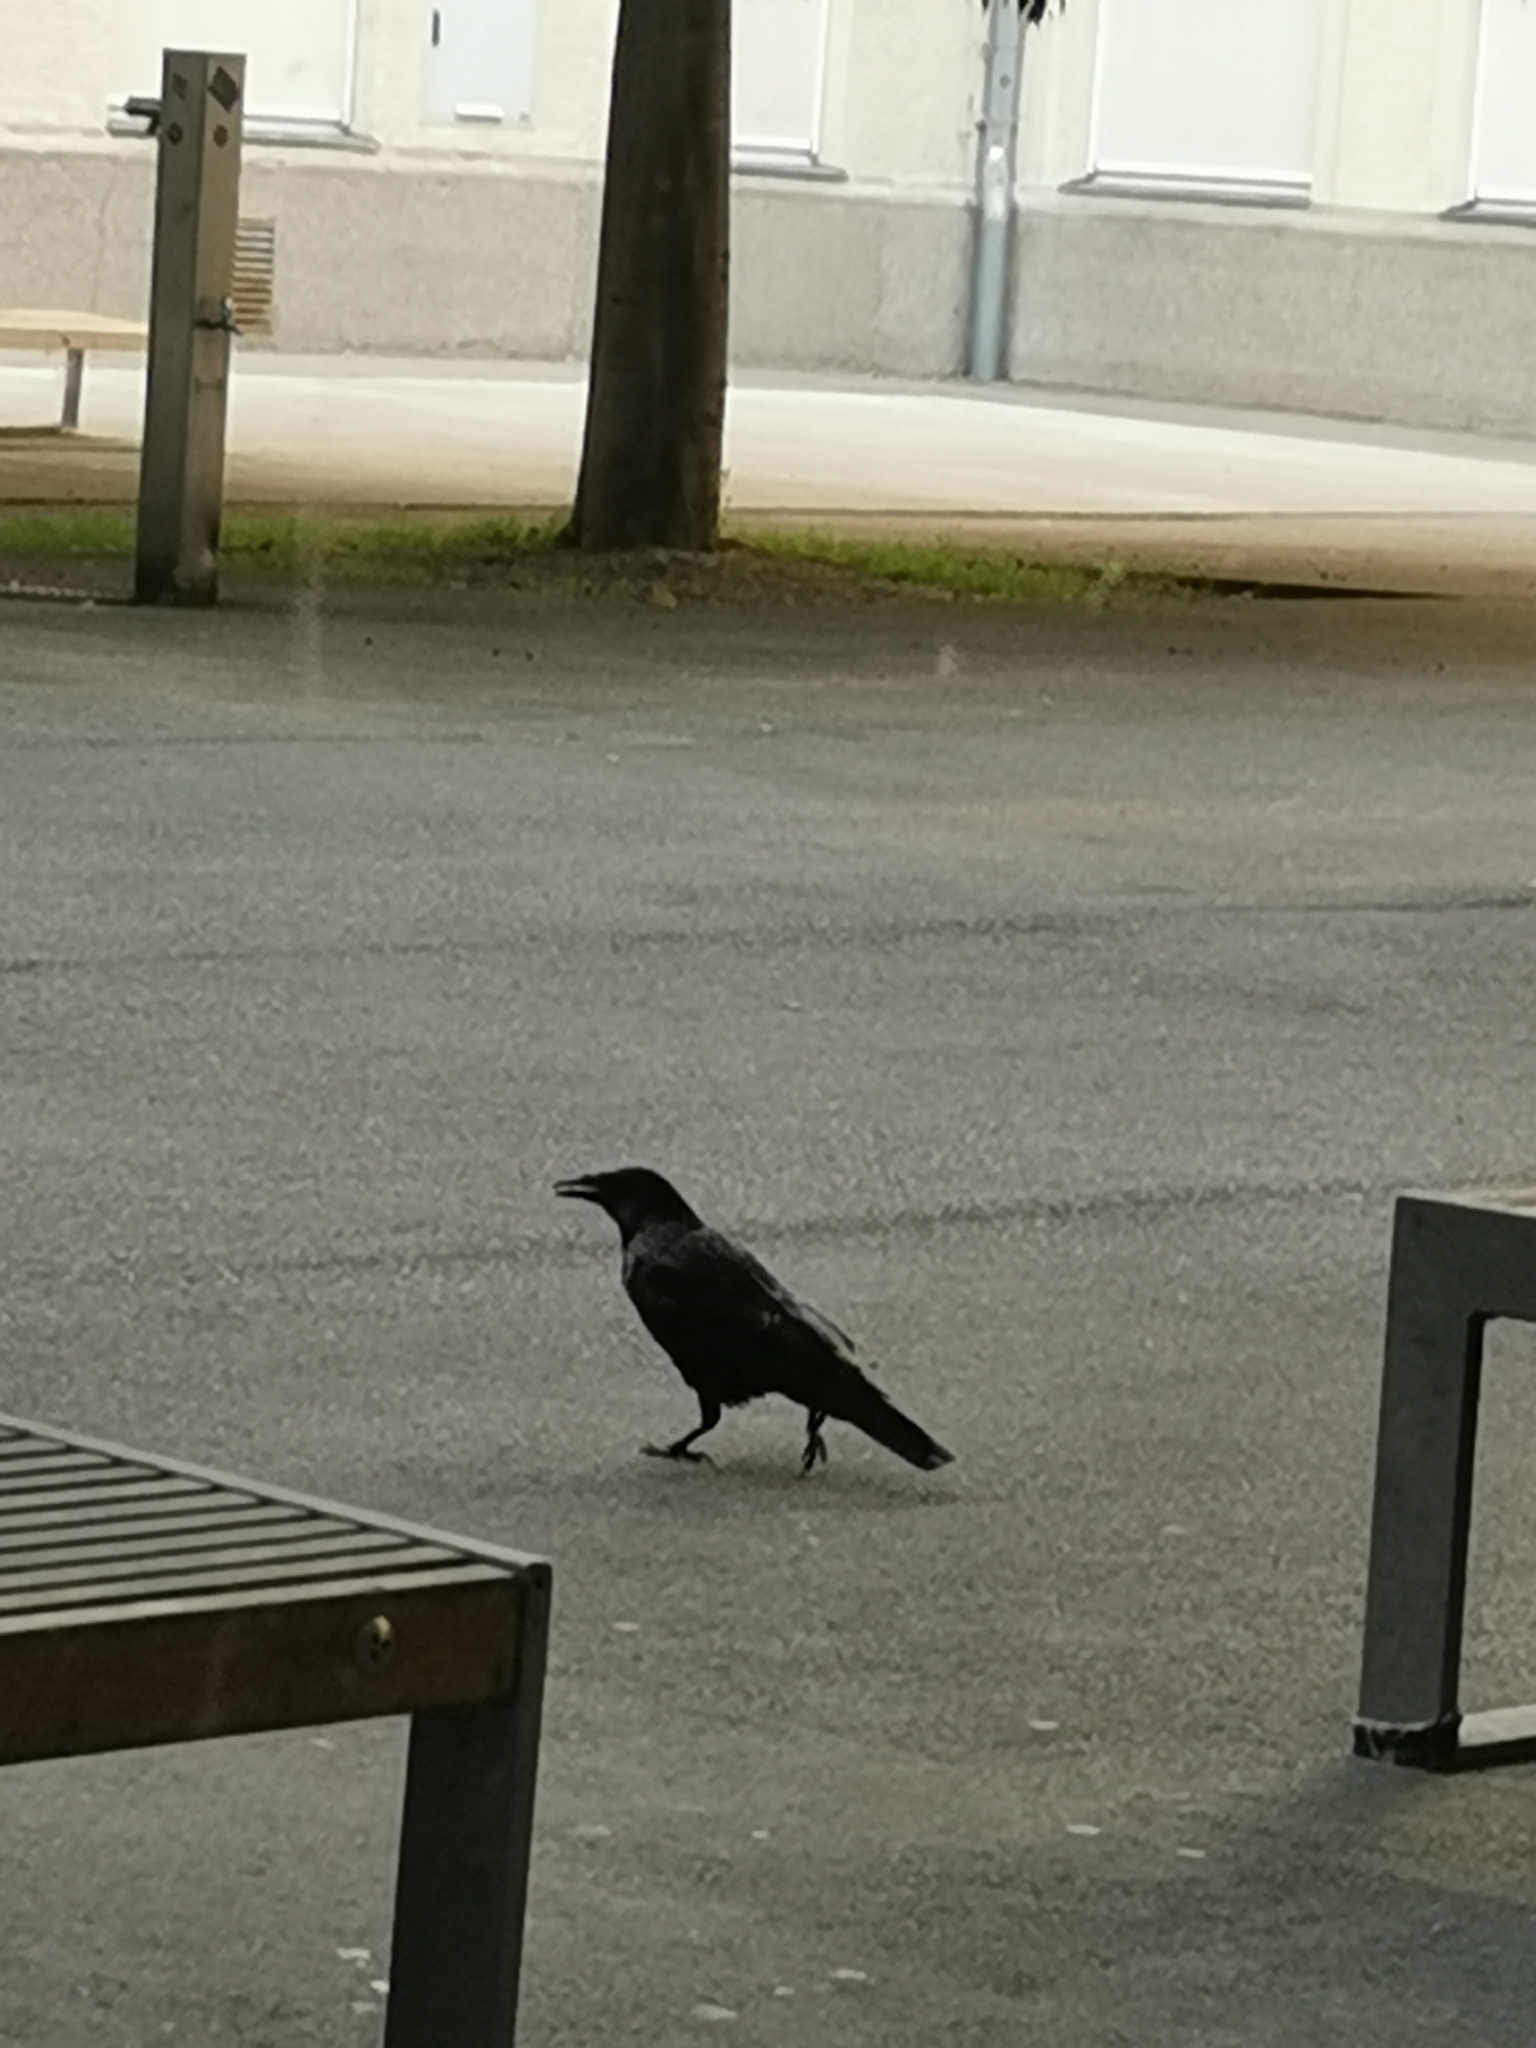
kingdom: Animalia
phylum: Chordata
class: Aves
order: Passeriformes
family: Corvidae
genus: Corvus
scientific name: Corvus
